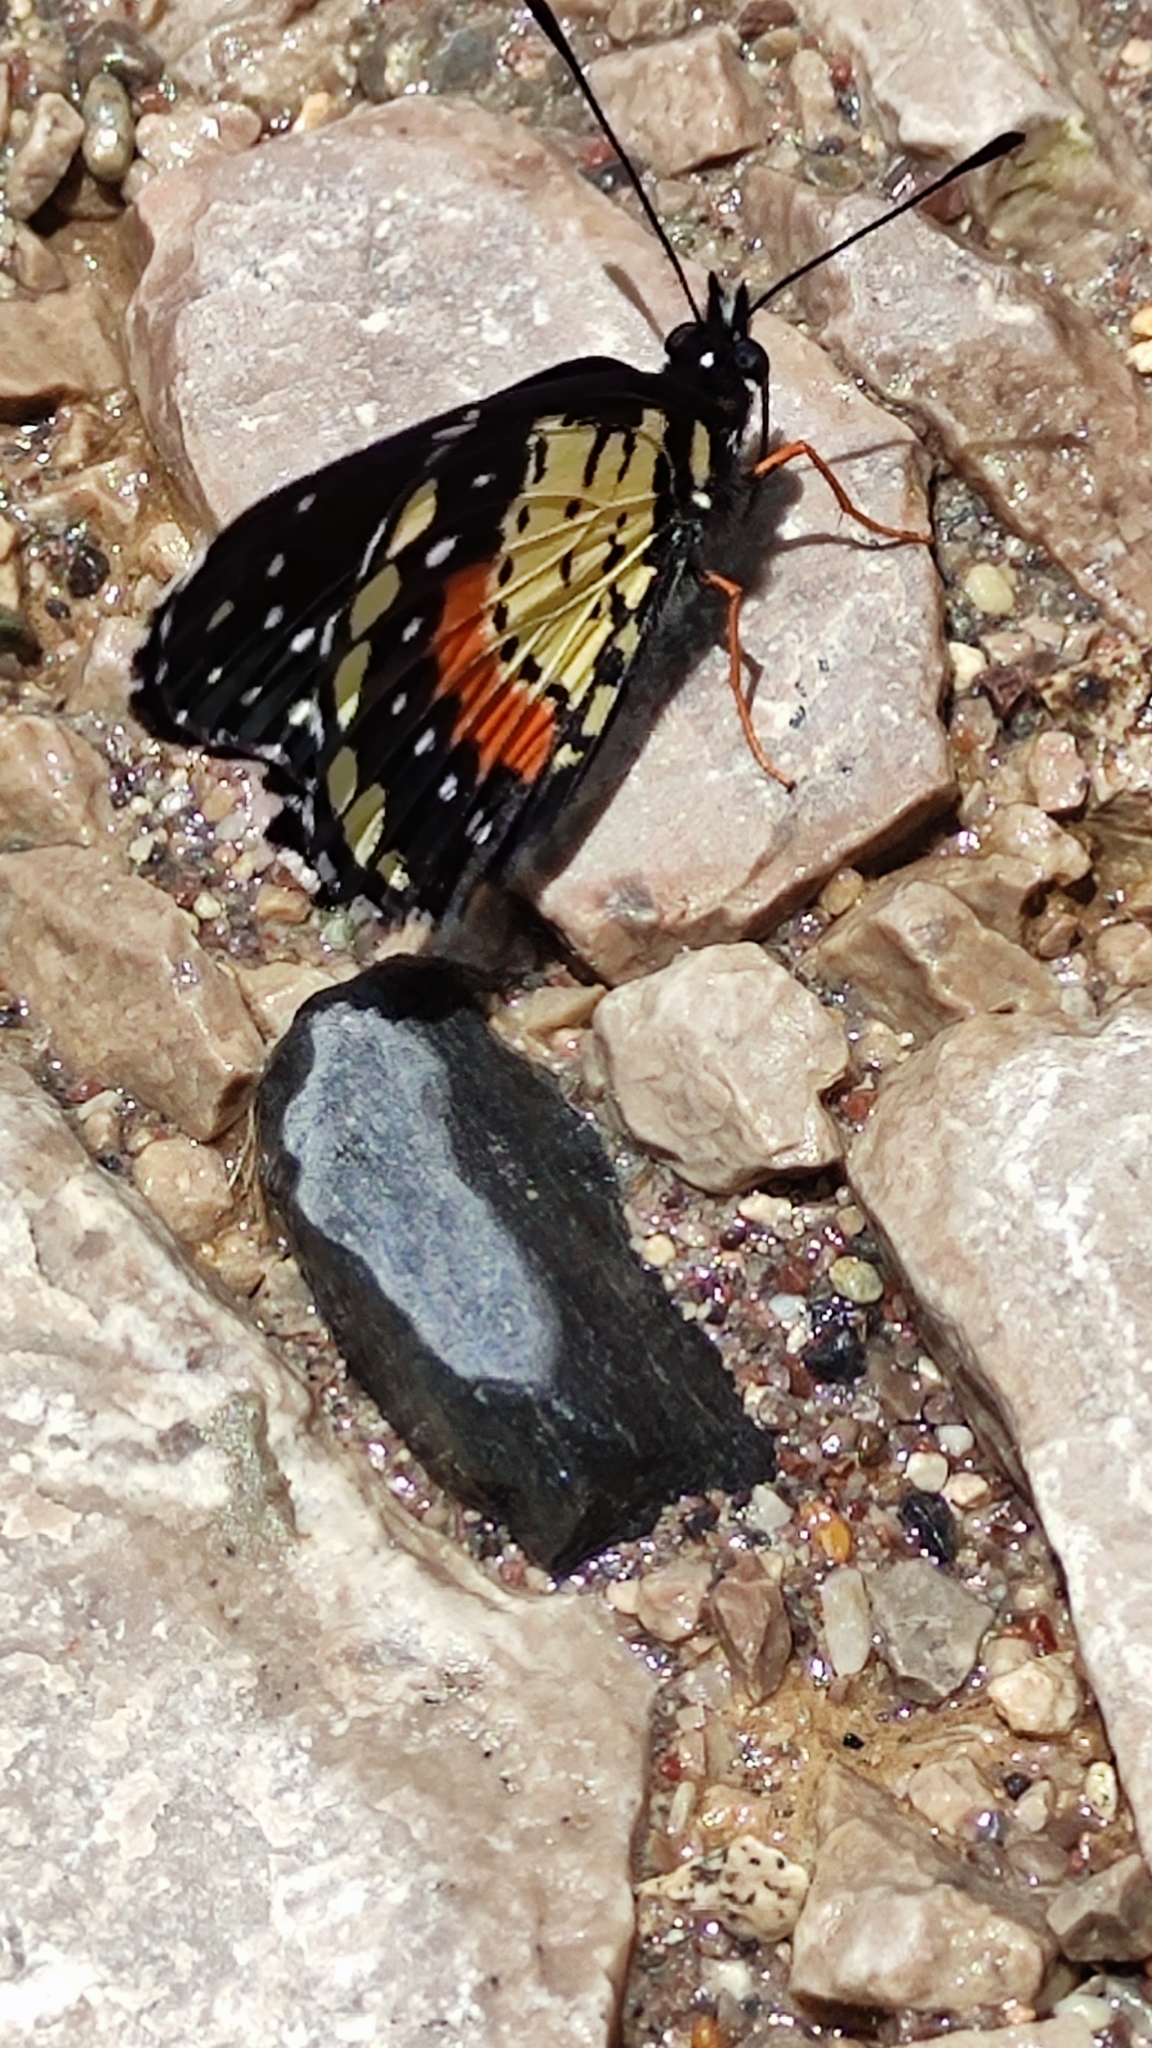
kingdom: Animalia
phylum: Arthropoda
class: Insecta
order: Lepidoptera
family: Nymphalidae
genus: Chlosyne
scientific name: Chlosyne janais
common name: Crimson patch
